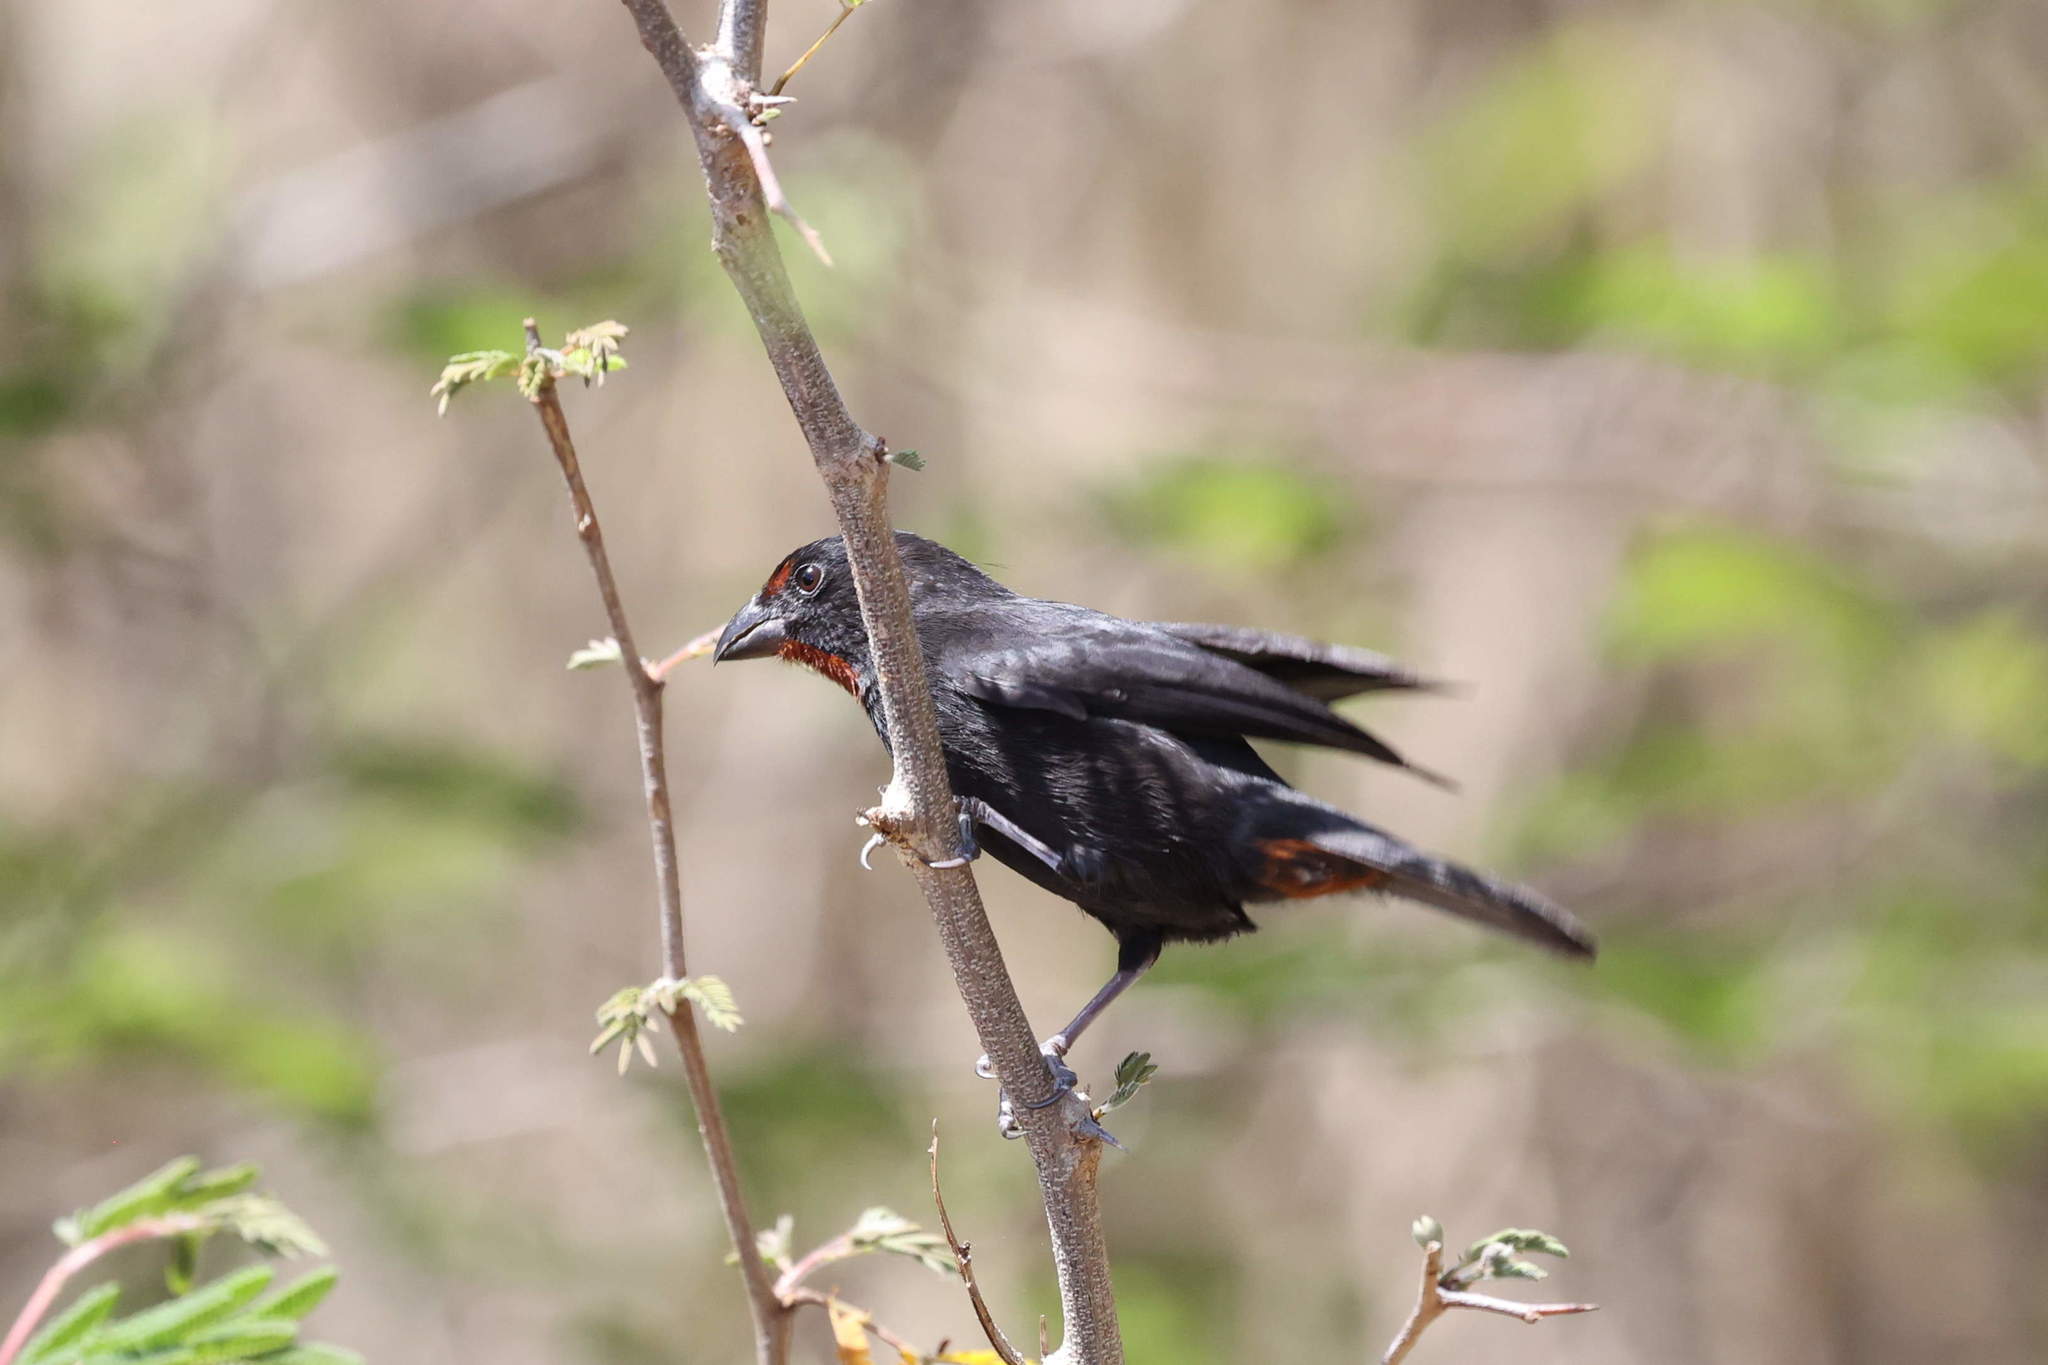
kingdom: Animalia
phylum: Chordata
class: Aves
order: Passeriformes
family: Thraupidae
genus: Loxigilla
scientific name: Loxigilla noctis
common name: Lesser antillean bullfinch
